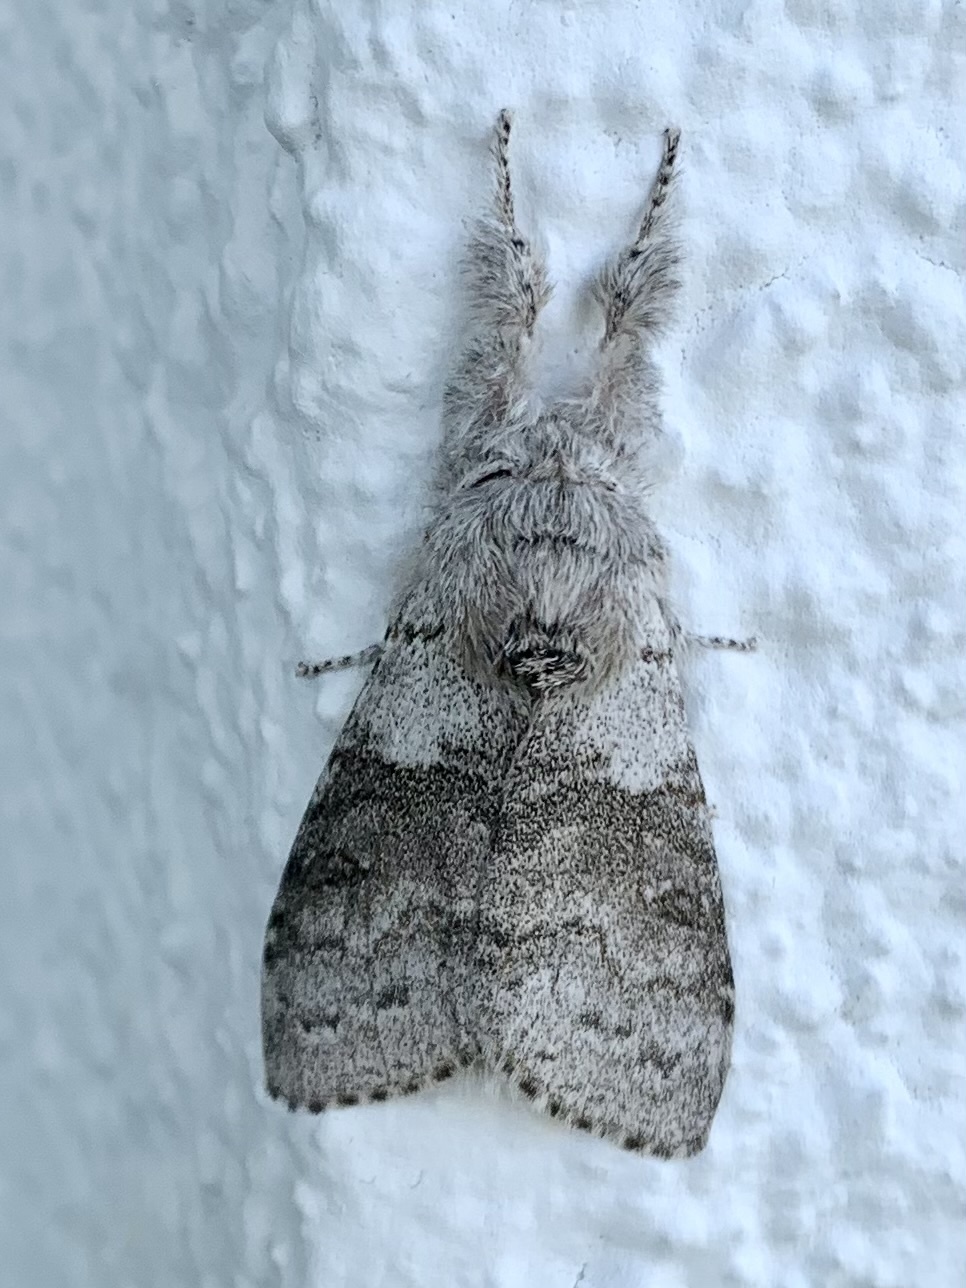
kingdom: Animalia
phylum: Arthropoda
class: Insecta
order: Lepidoptera
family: Erebidae
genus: Calliteara
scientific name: Calliteara pudibunda
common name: Pale tussock
